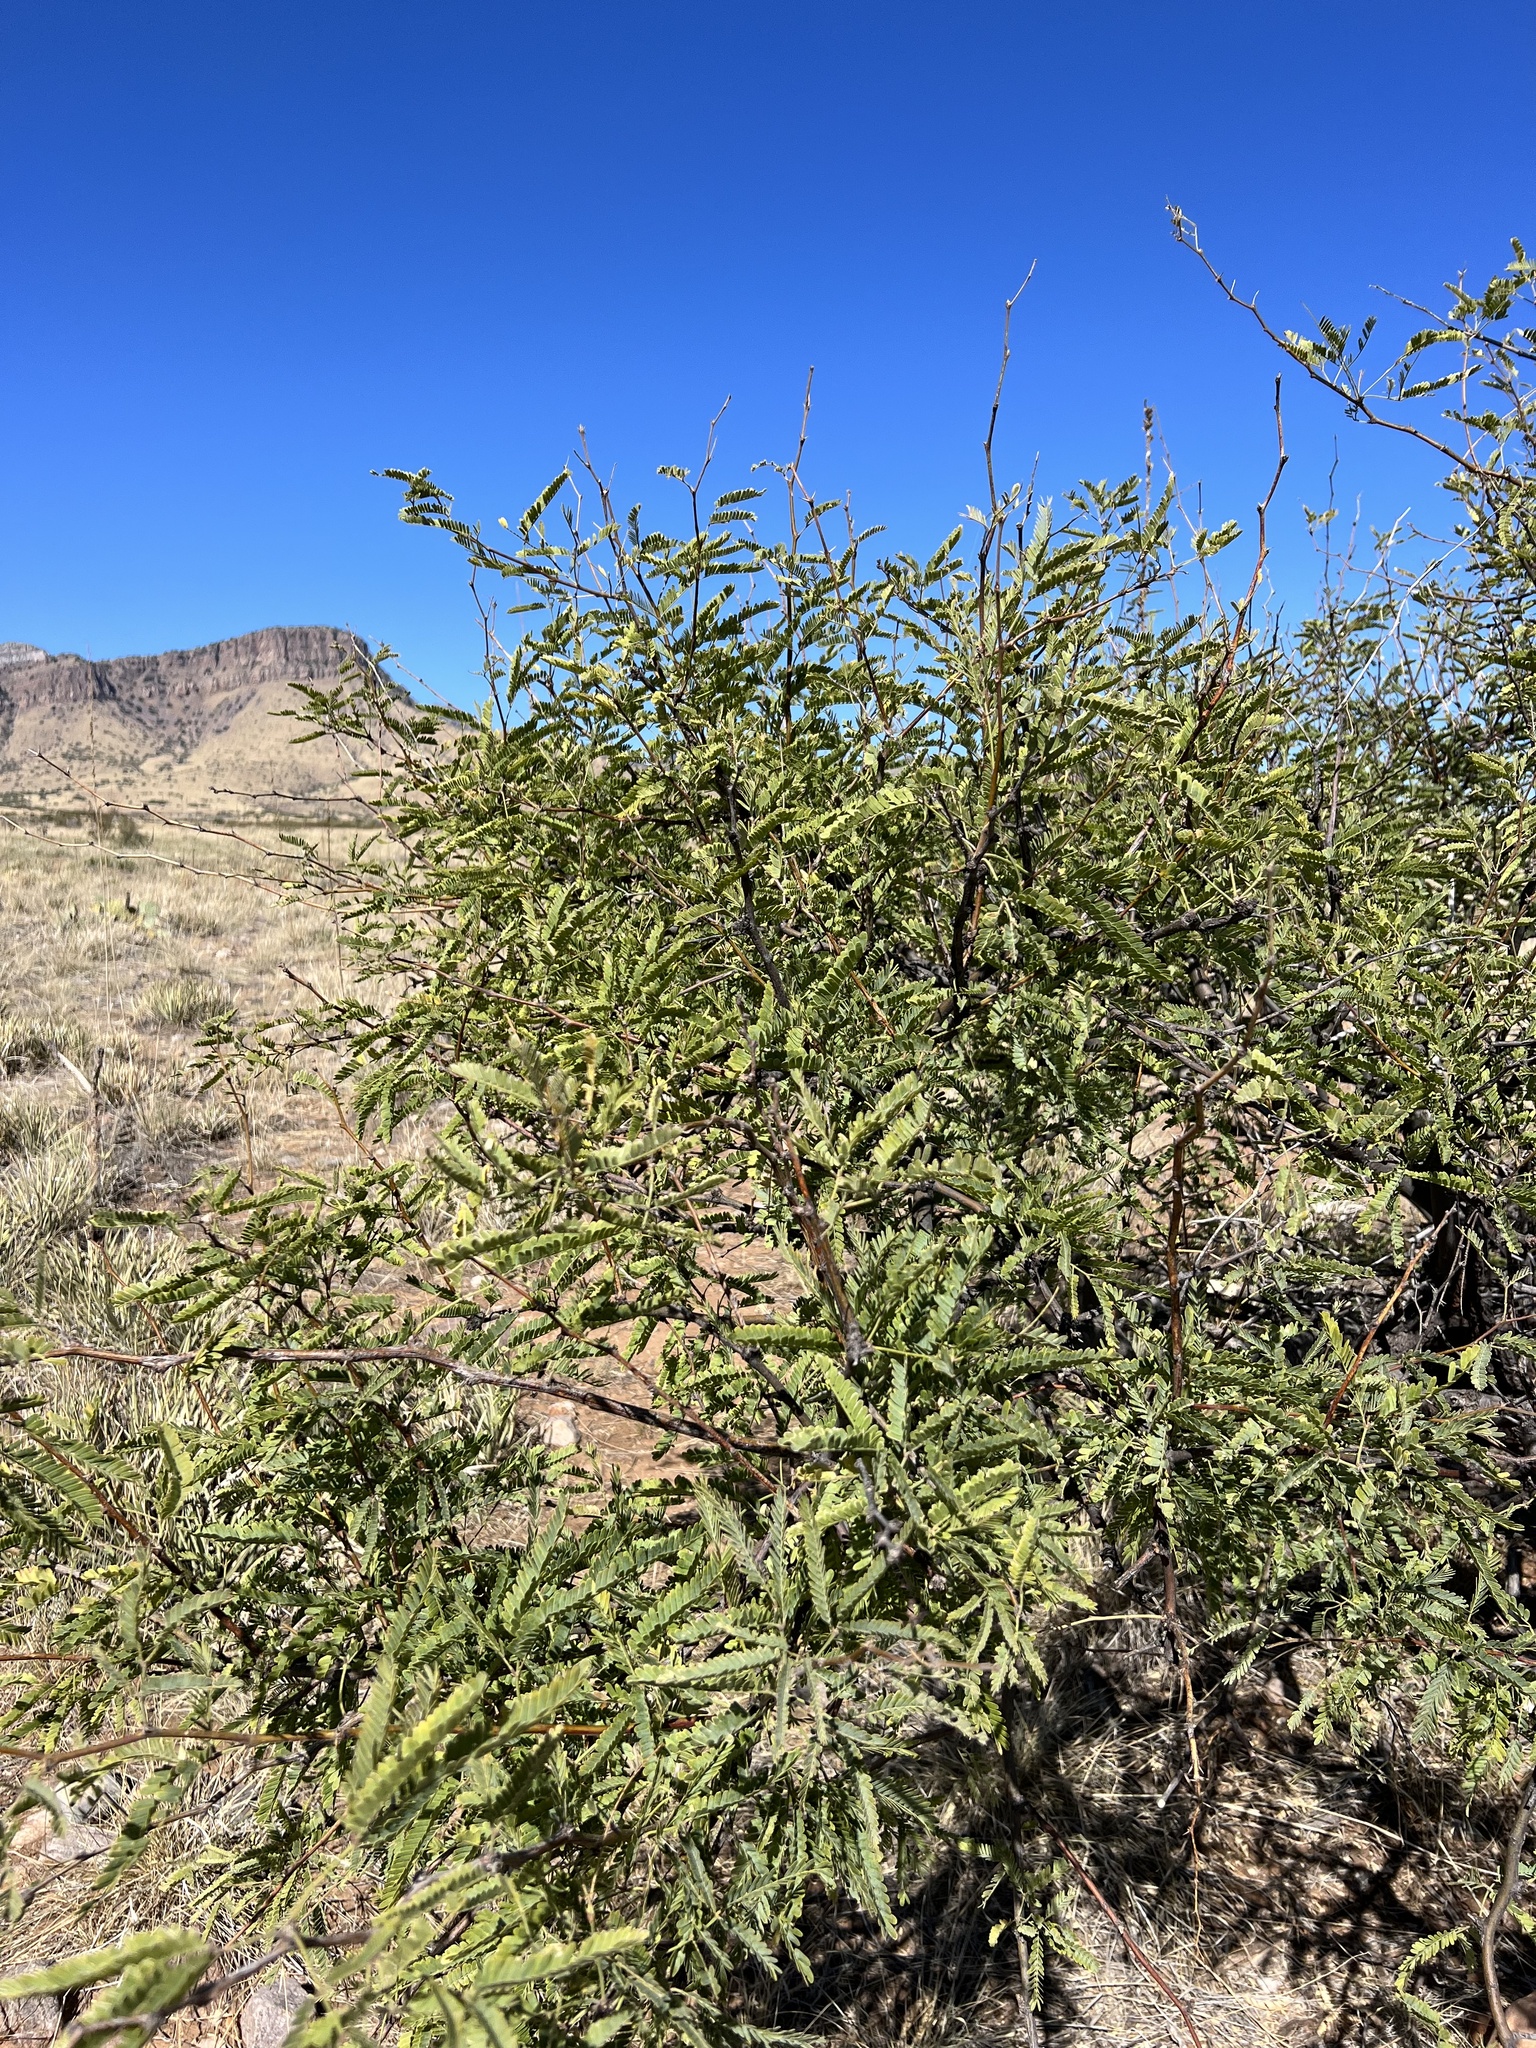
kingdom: Plantae
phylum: Tracheophyta
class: Magnoliopsida
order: Fabales
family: Fabaceae
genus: Prosopis
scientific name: Prosopis velutina
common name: Velvet mesquite
